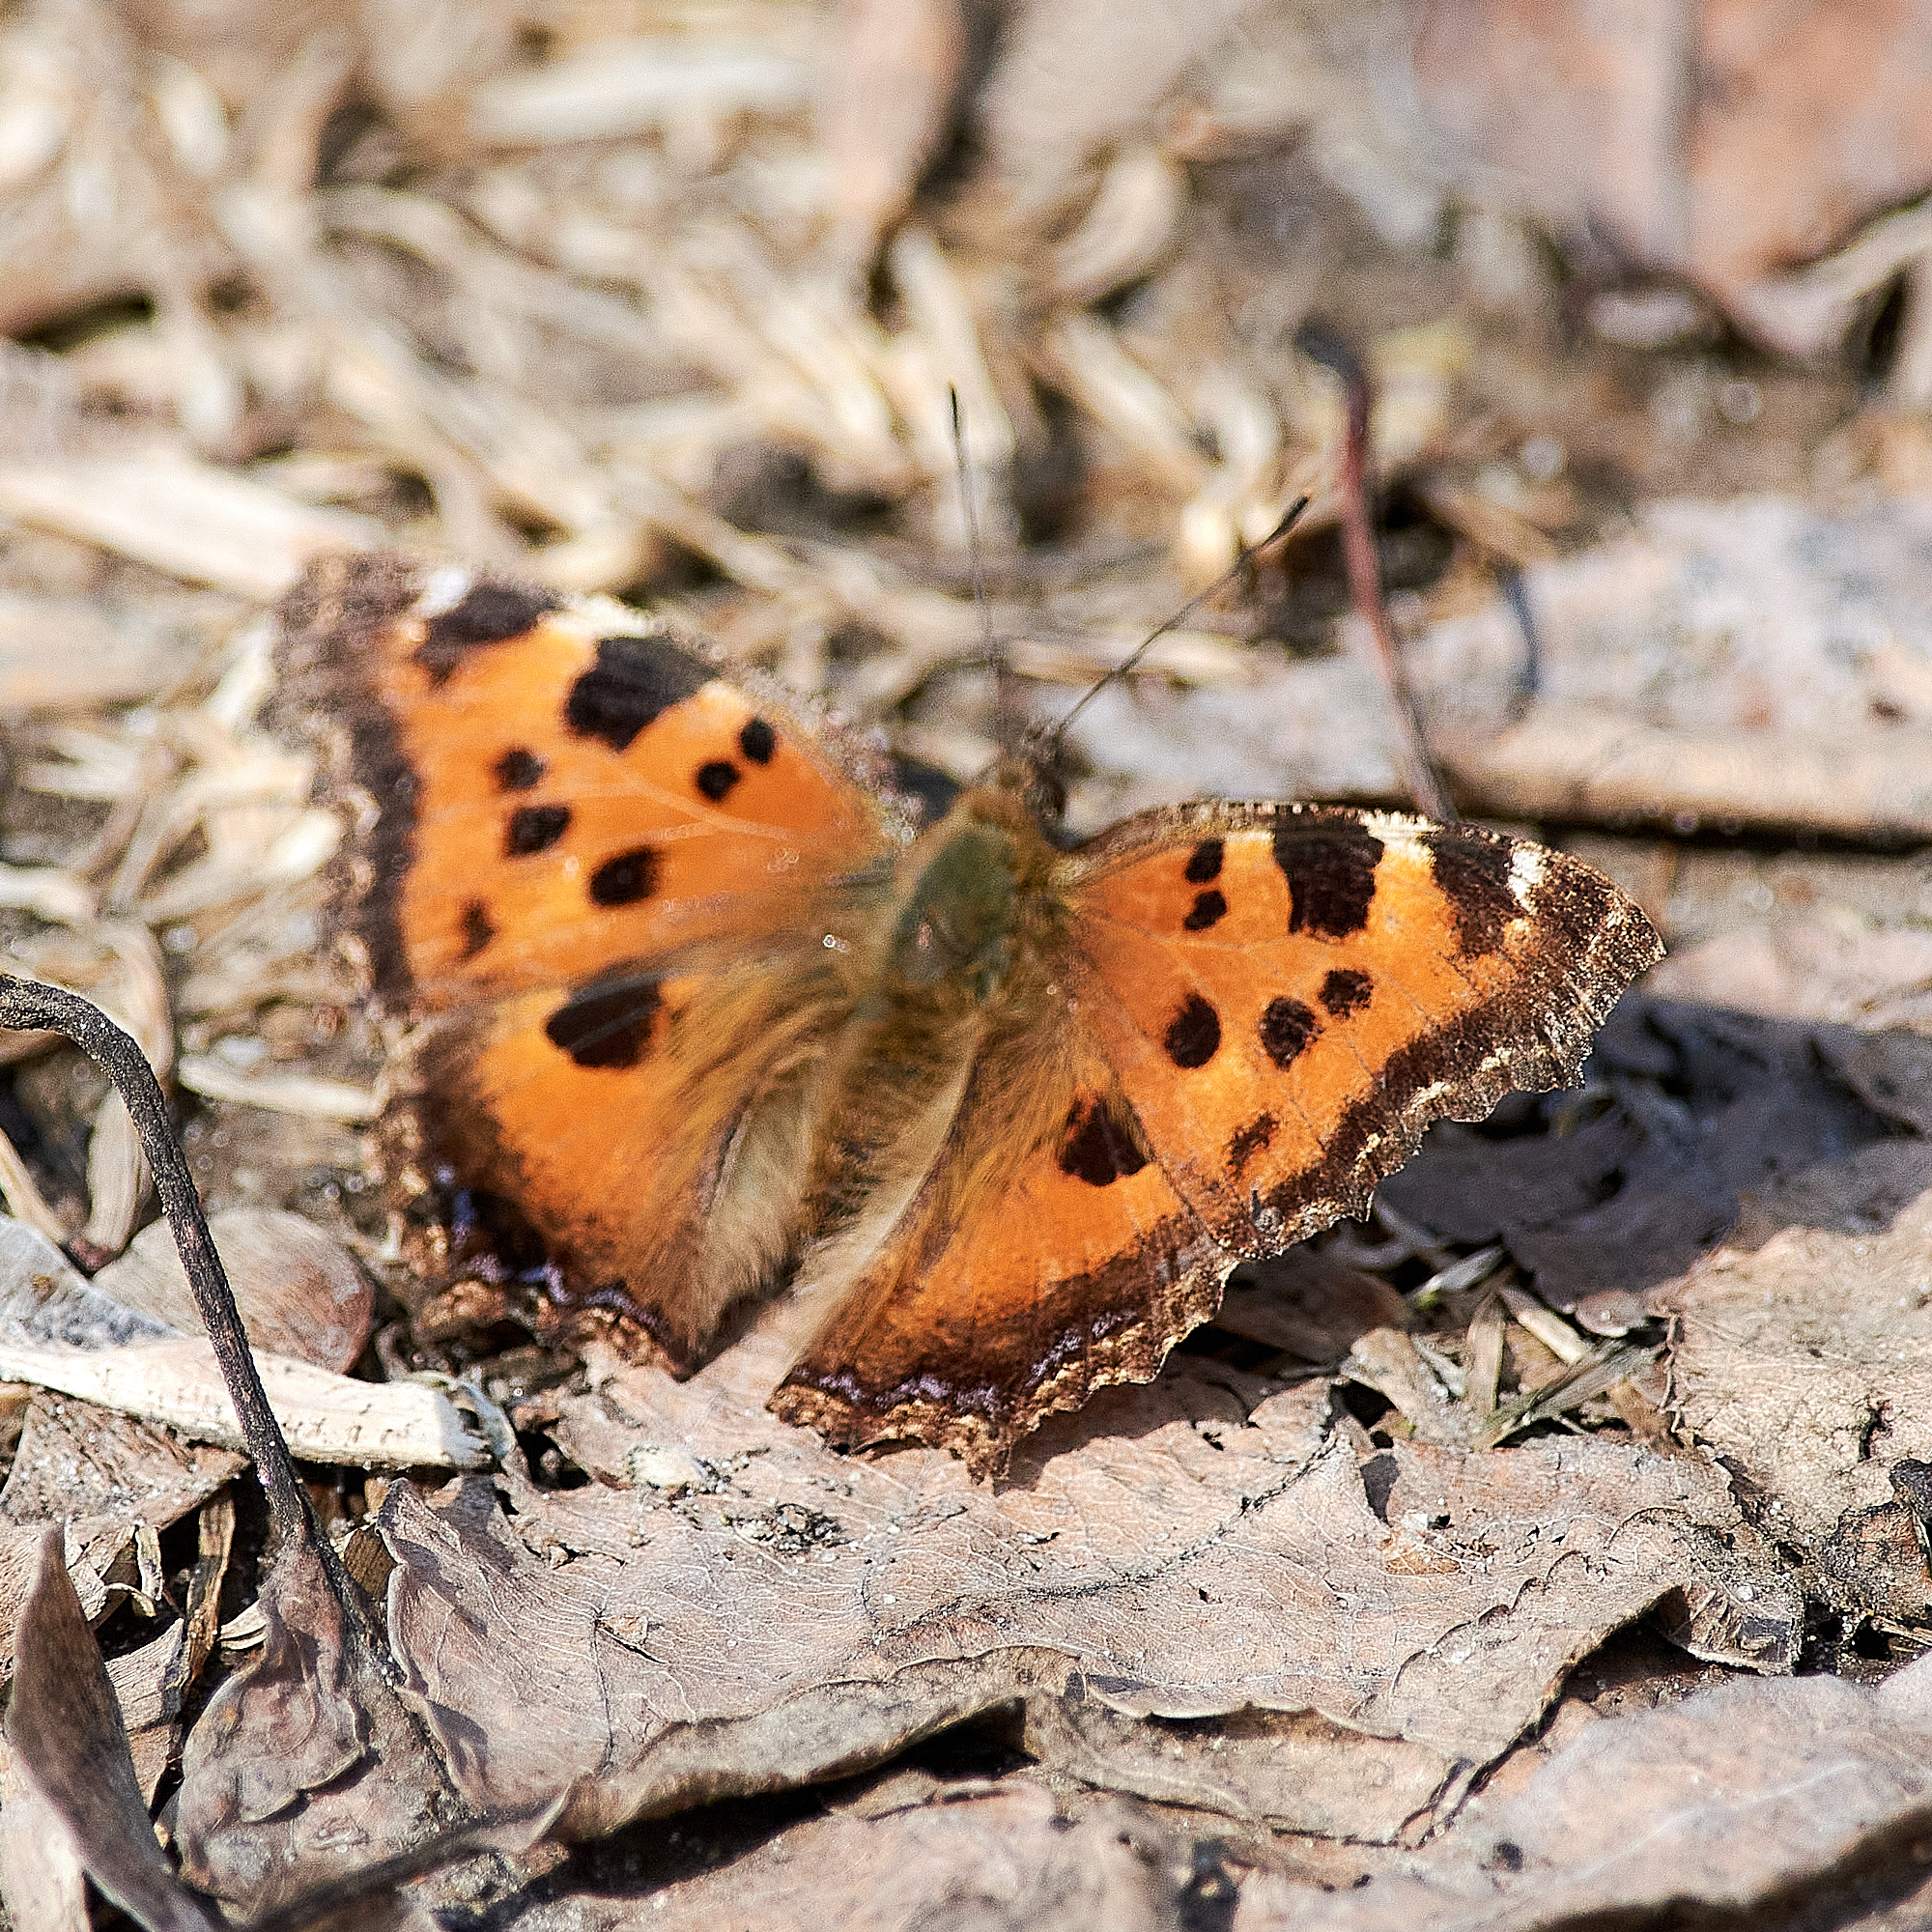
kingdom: Animalia
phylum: Arthropoda
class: Insecta
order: Lepidoptera
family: Nymphalidae
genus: Nymphalis
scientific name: Nymphalis xanthomelas
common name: Scarce tortoiseshell
